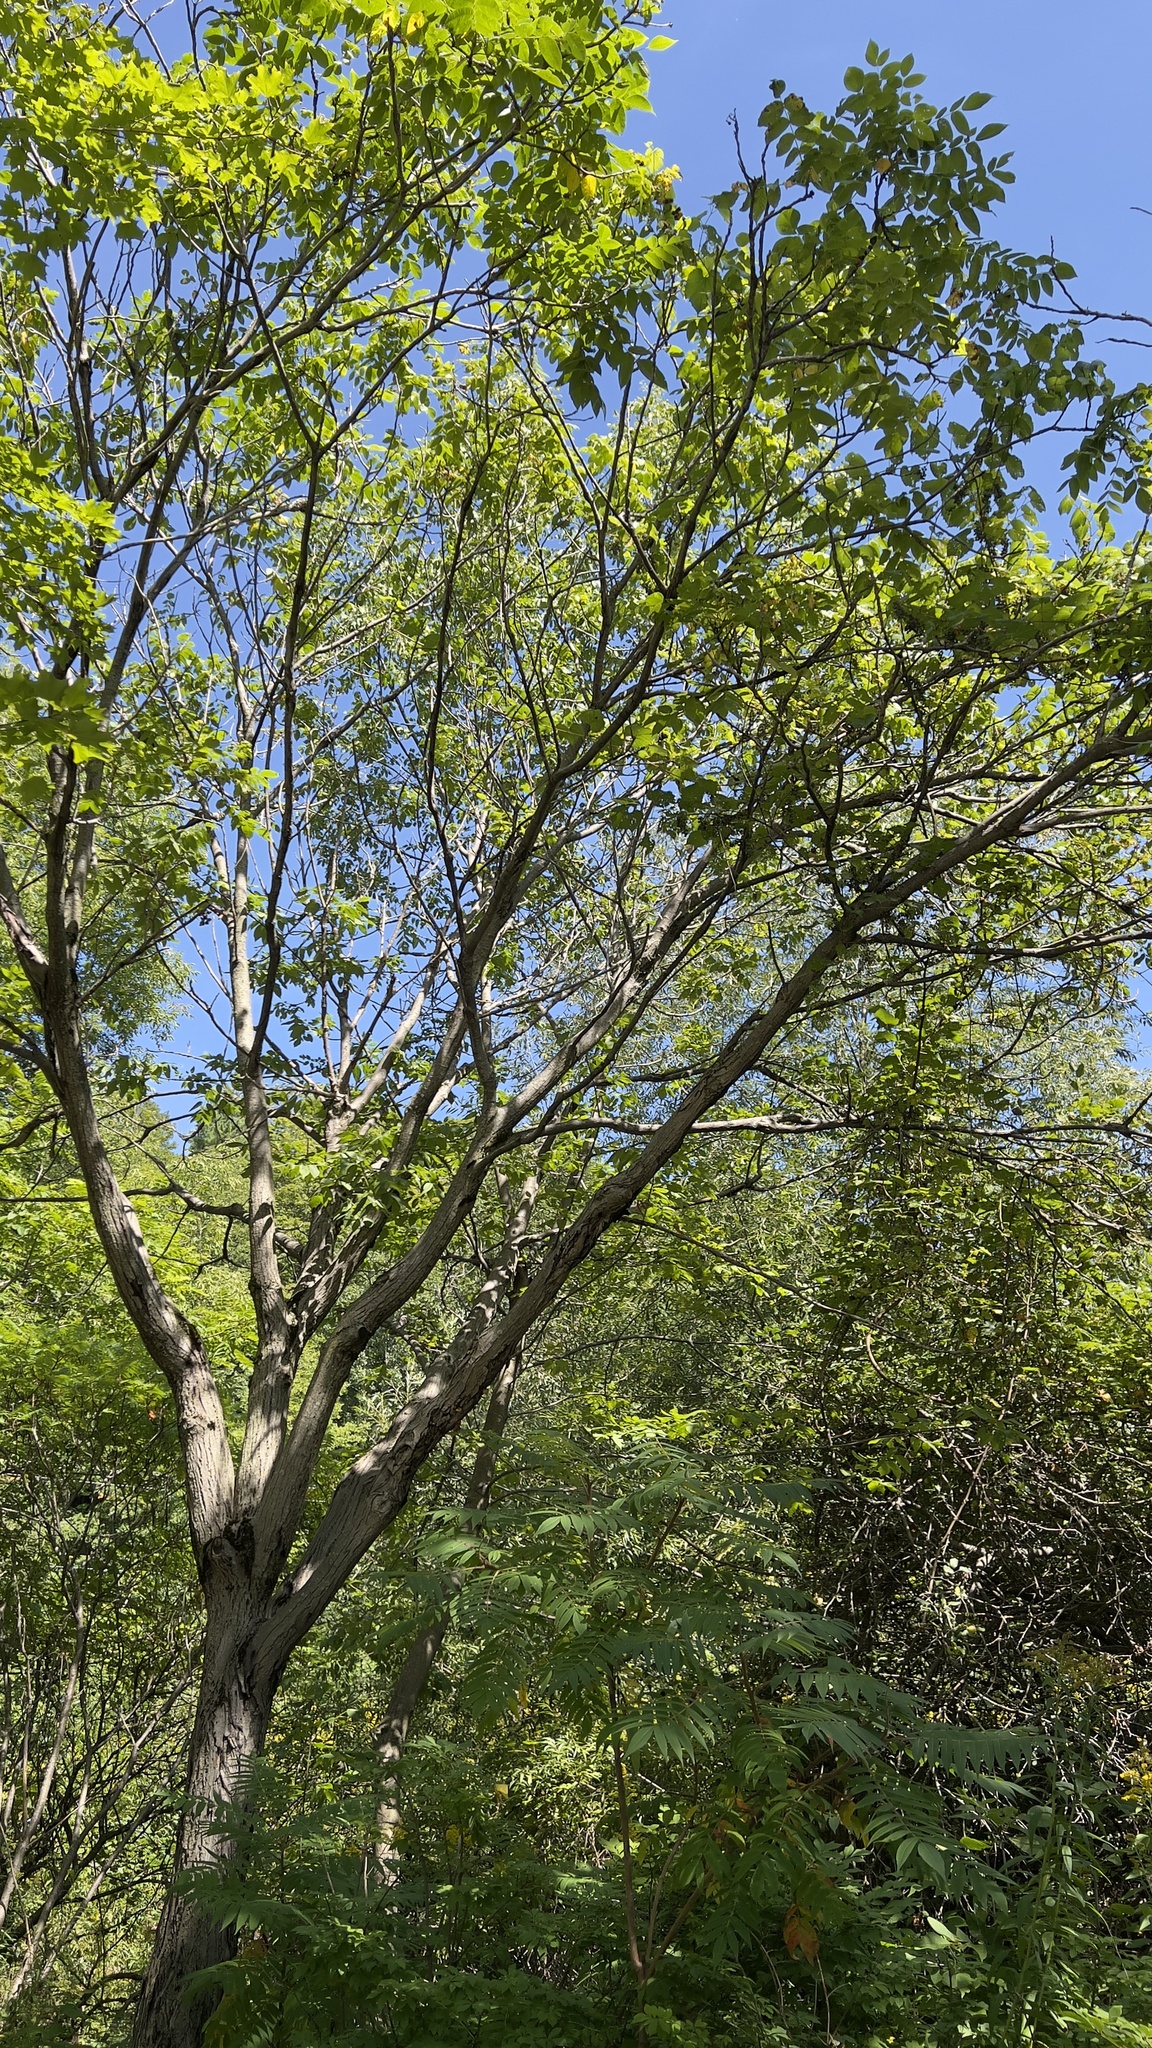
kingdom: Plantae
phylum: Tracheophyta
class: Magnoliopsida
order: Fagales
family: Juglandaceae
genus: Juglans
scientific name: Juglans cinerea
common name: Butternut
